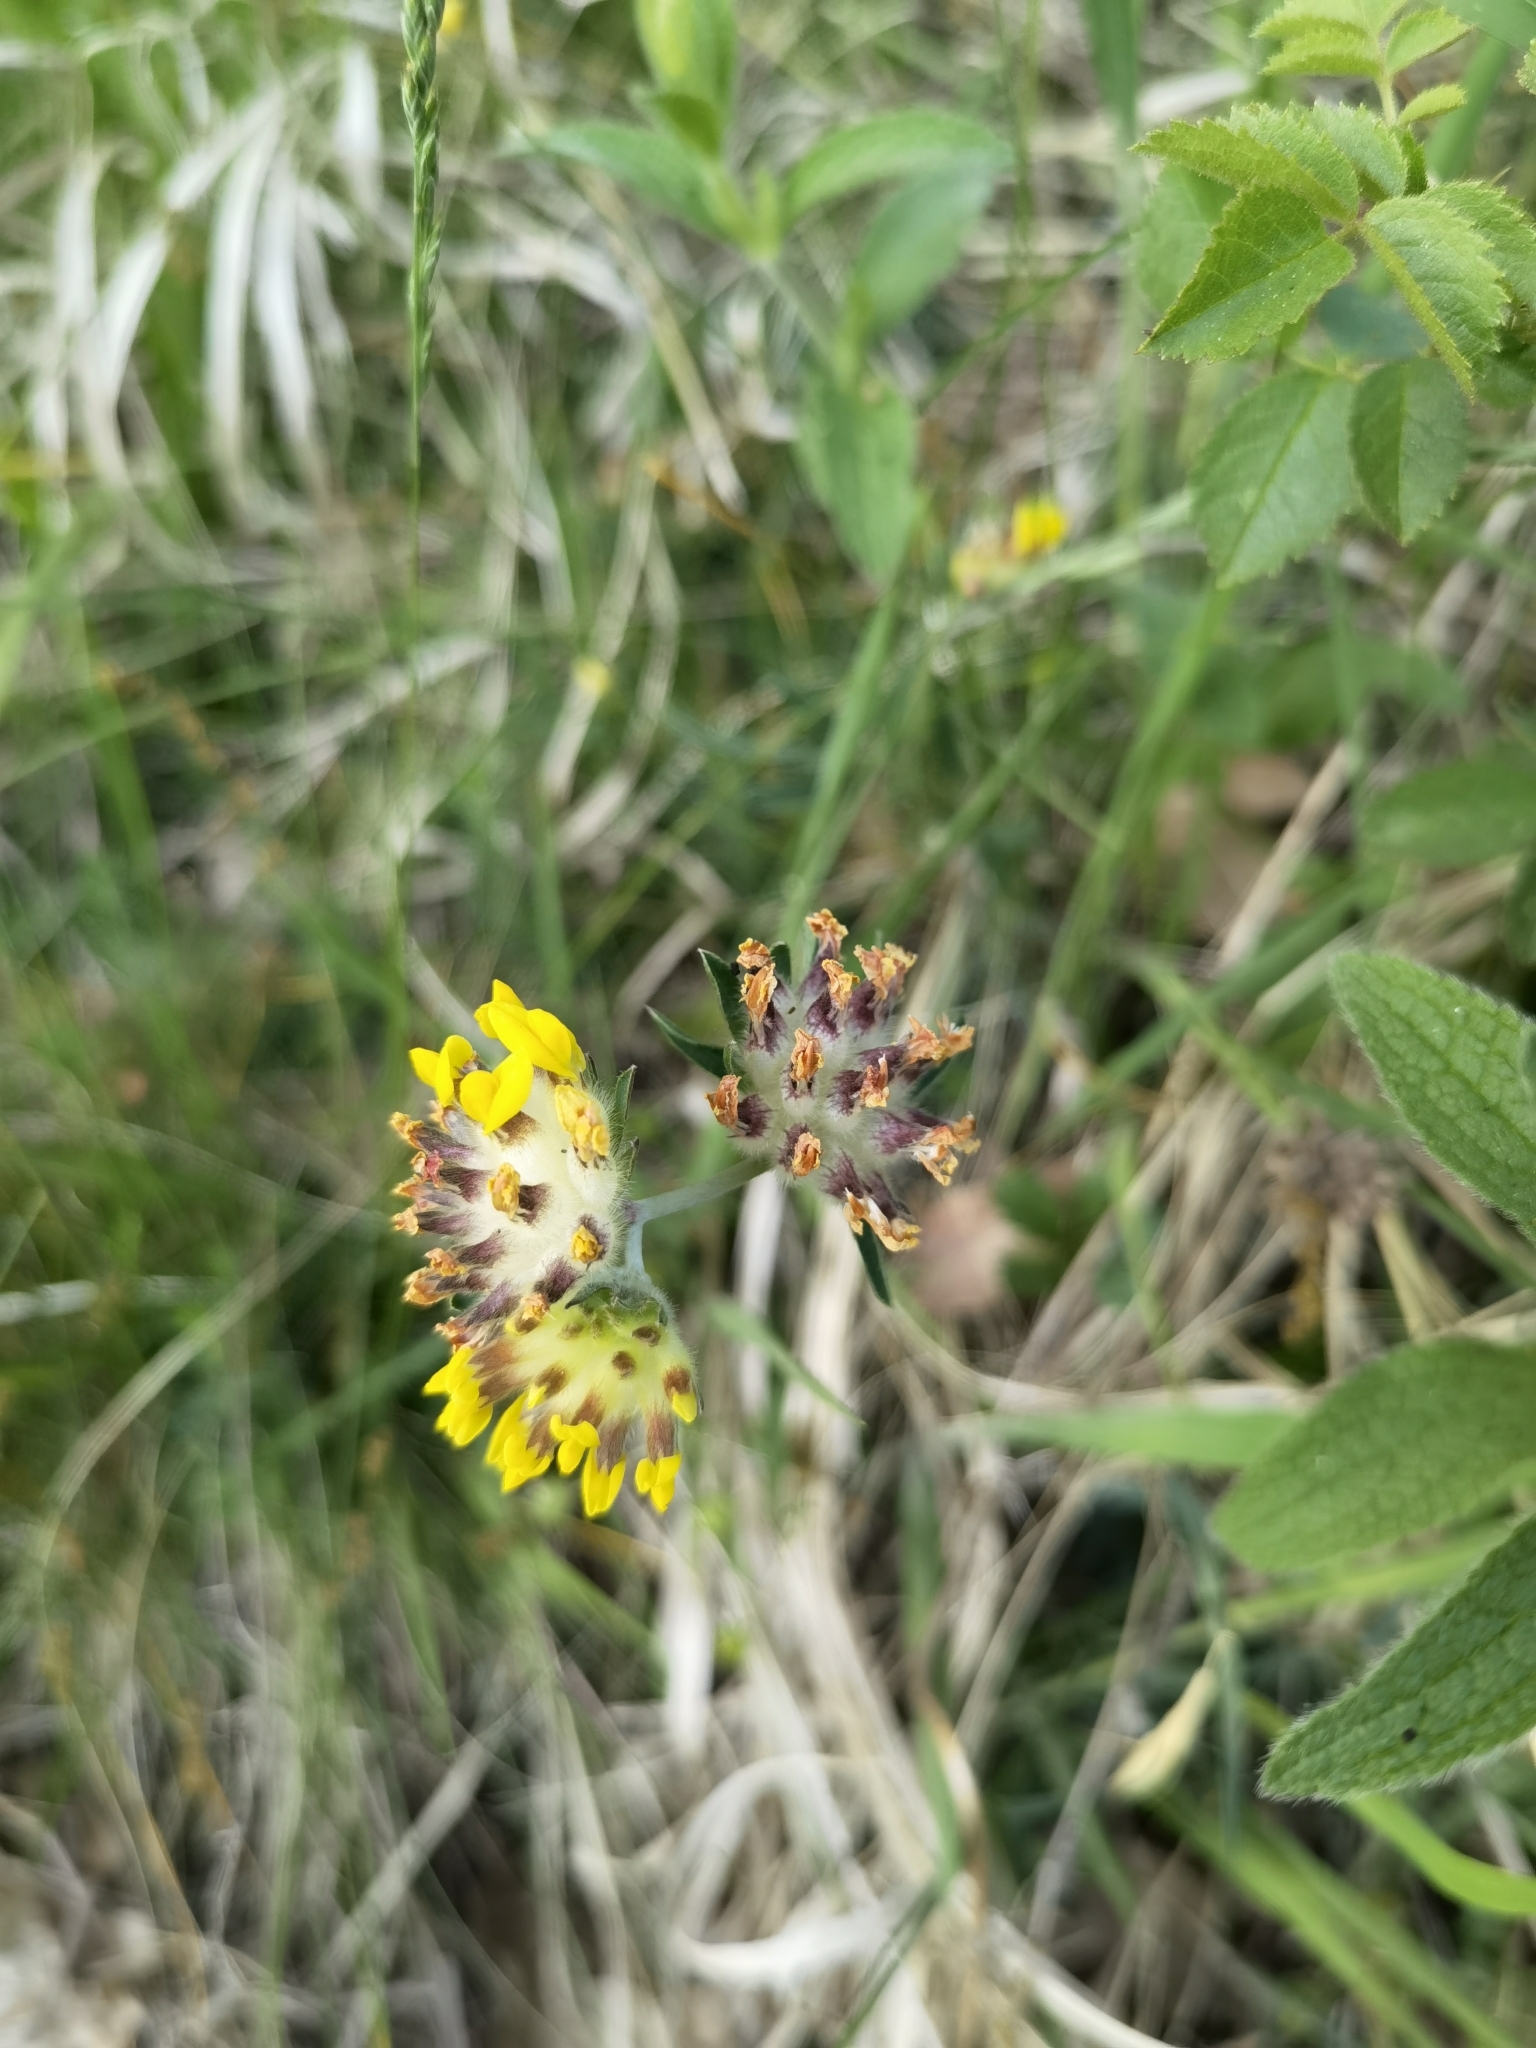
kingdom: Plantae
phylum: Tracheophyta
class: Magnoliopsida
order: Fabales
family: Fabaceae
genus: Anthyllis
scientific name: Anthyllis vulneraria
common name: Kidney vetch
